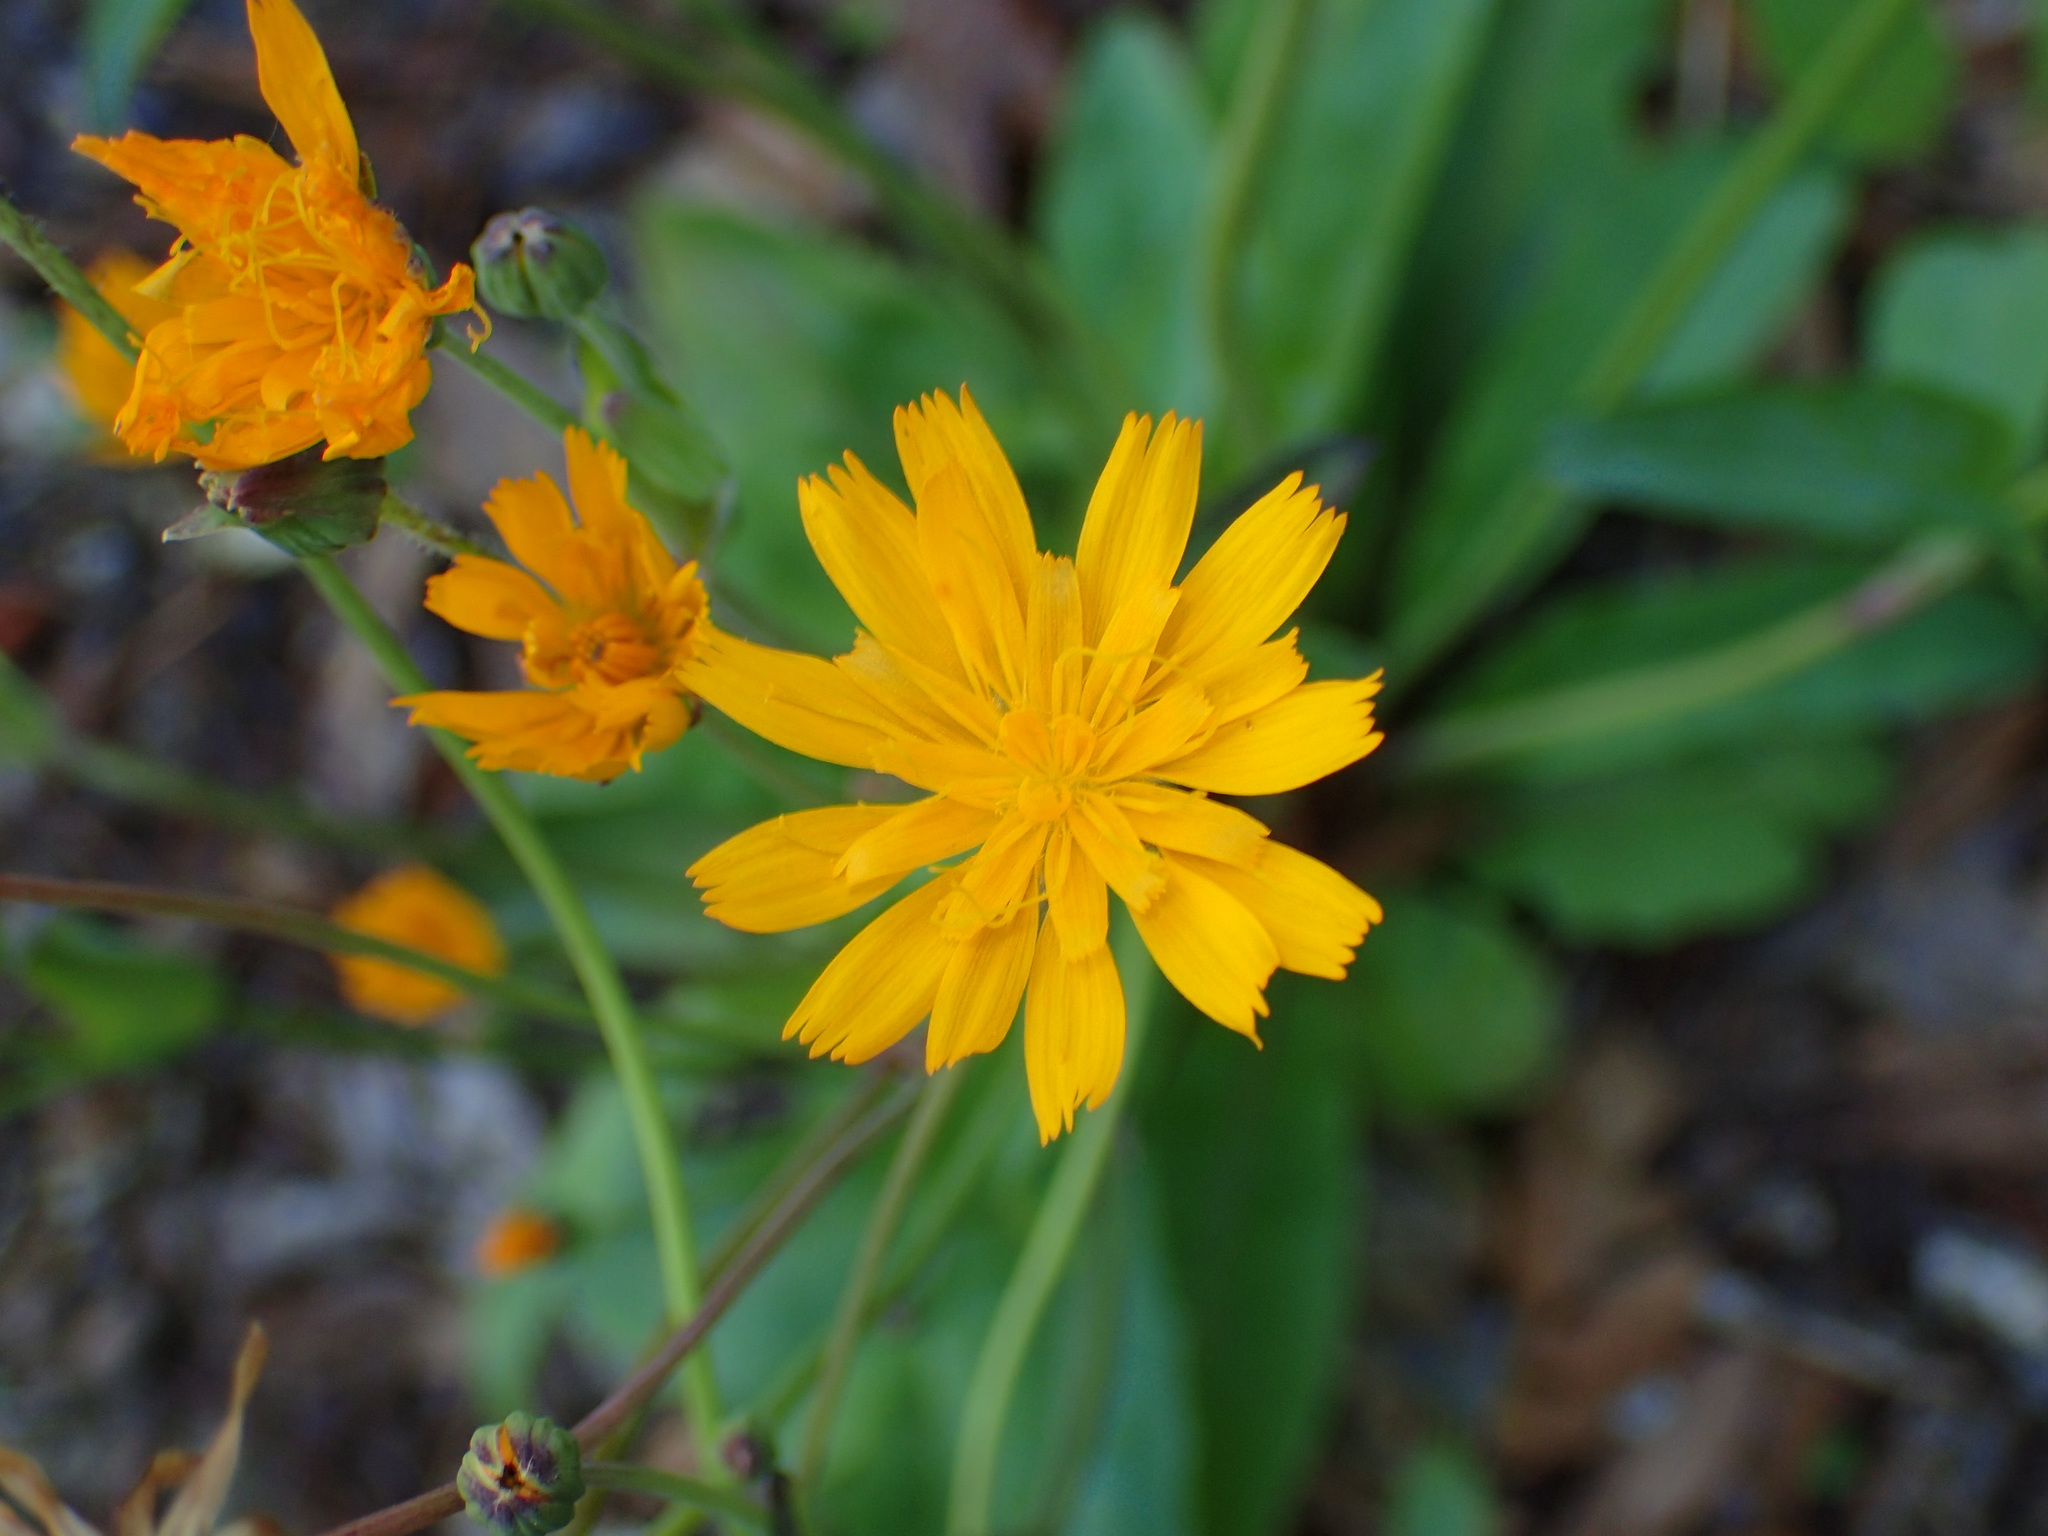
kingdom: Plantae
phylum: Tracheophyta
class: Magnoliopsida
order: Asterales
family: Asteraceae
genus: Krigia
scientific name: Krigia biflora
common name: Orange dwarf-dandelion
